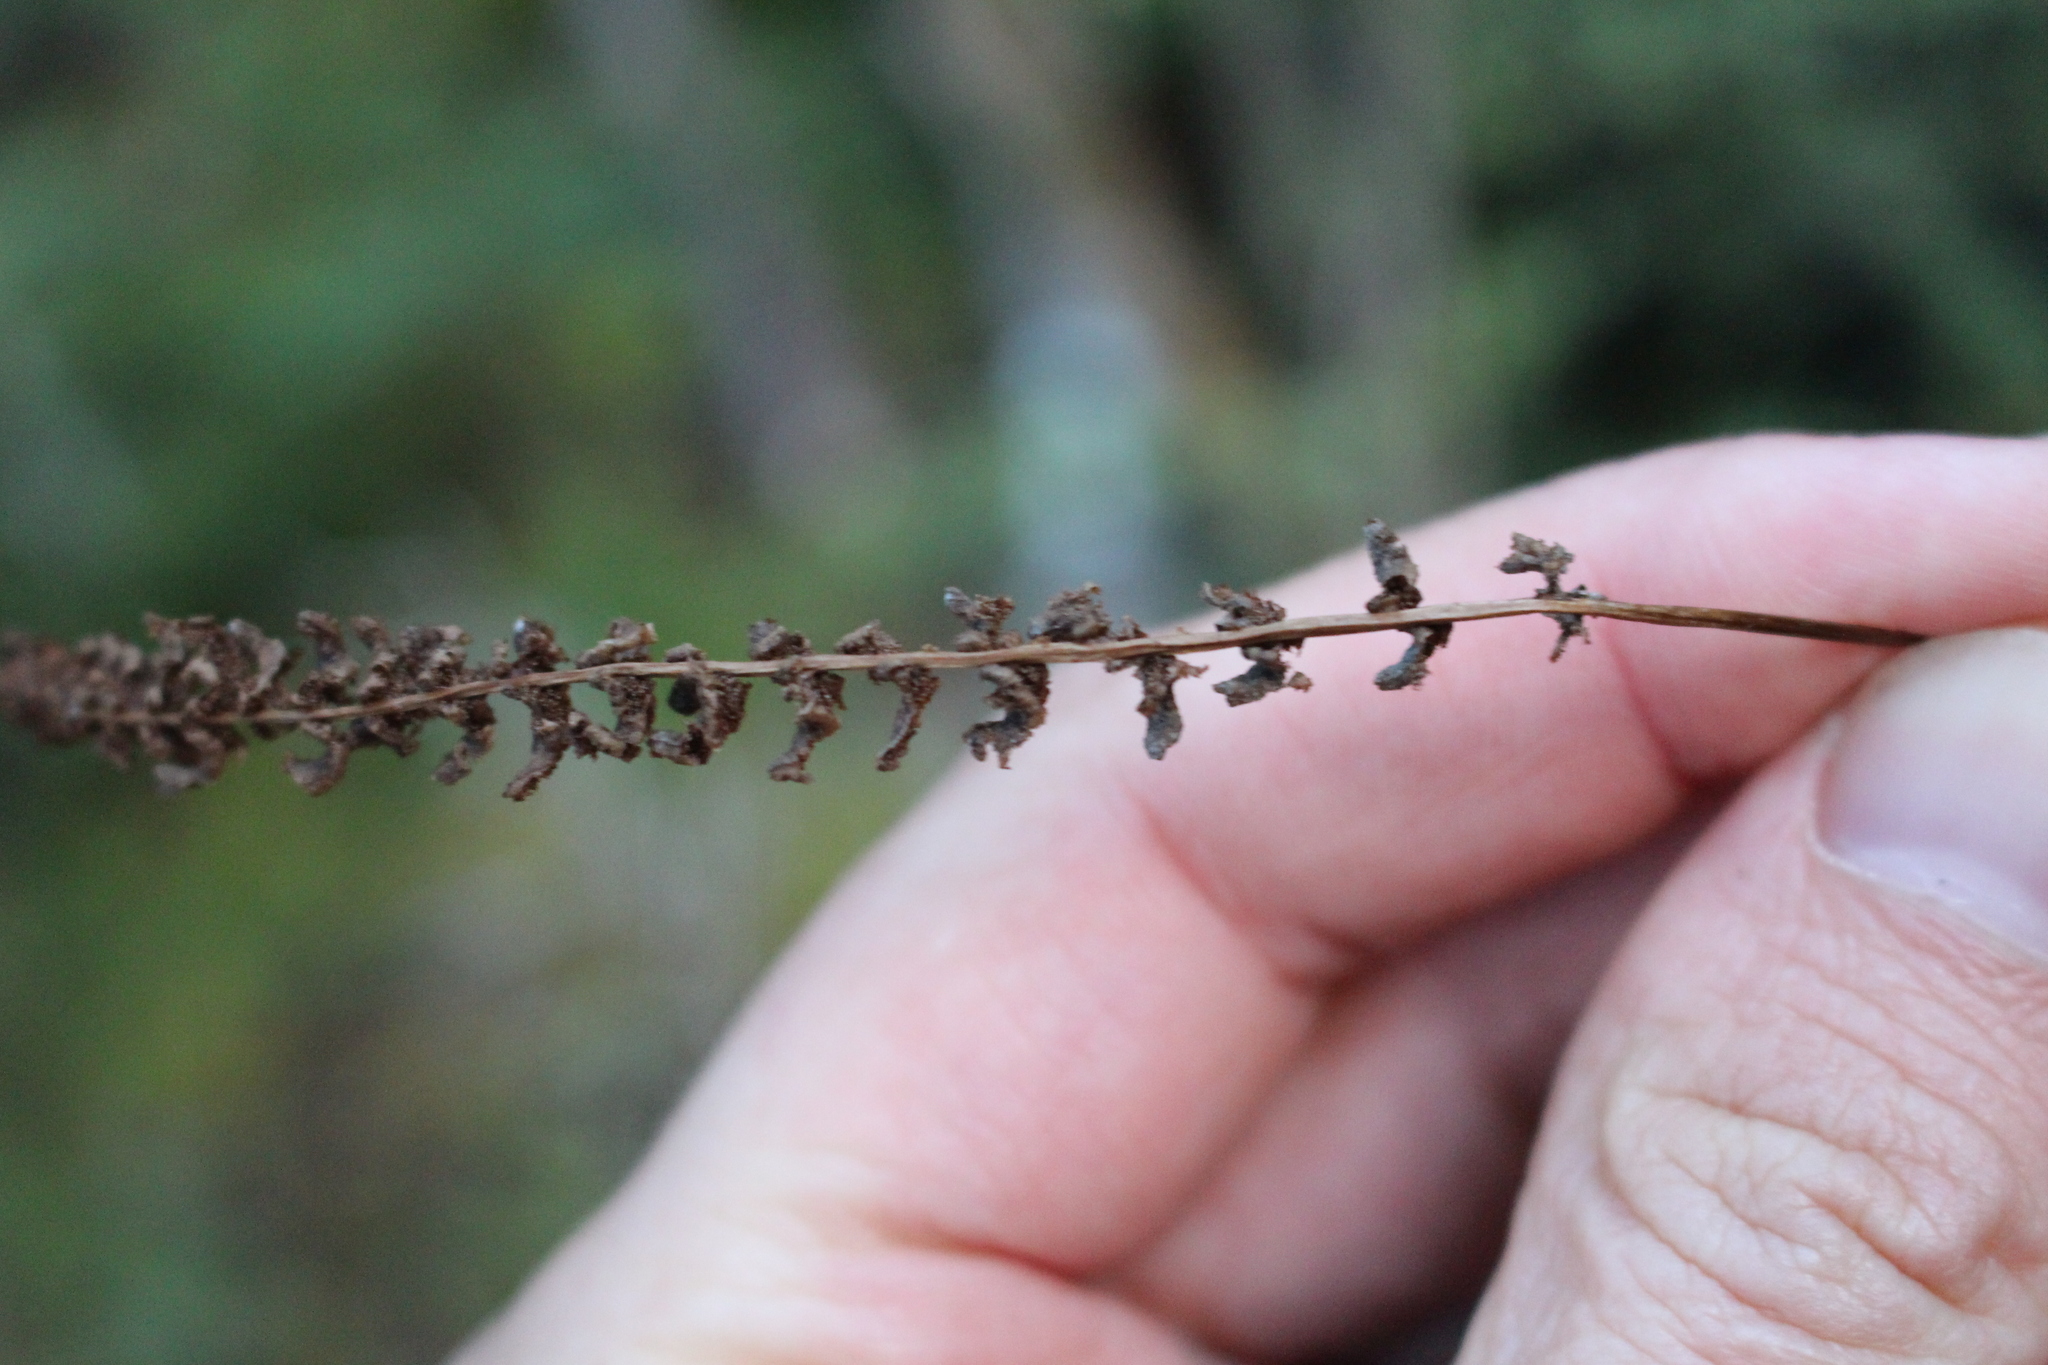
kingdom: Plantae
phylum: Tracheophyta
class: Polypodiopsida
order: Polypodiales
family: Blechnaceae
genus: Austroblechnum
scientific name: Austroblechnum penna-marina
